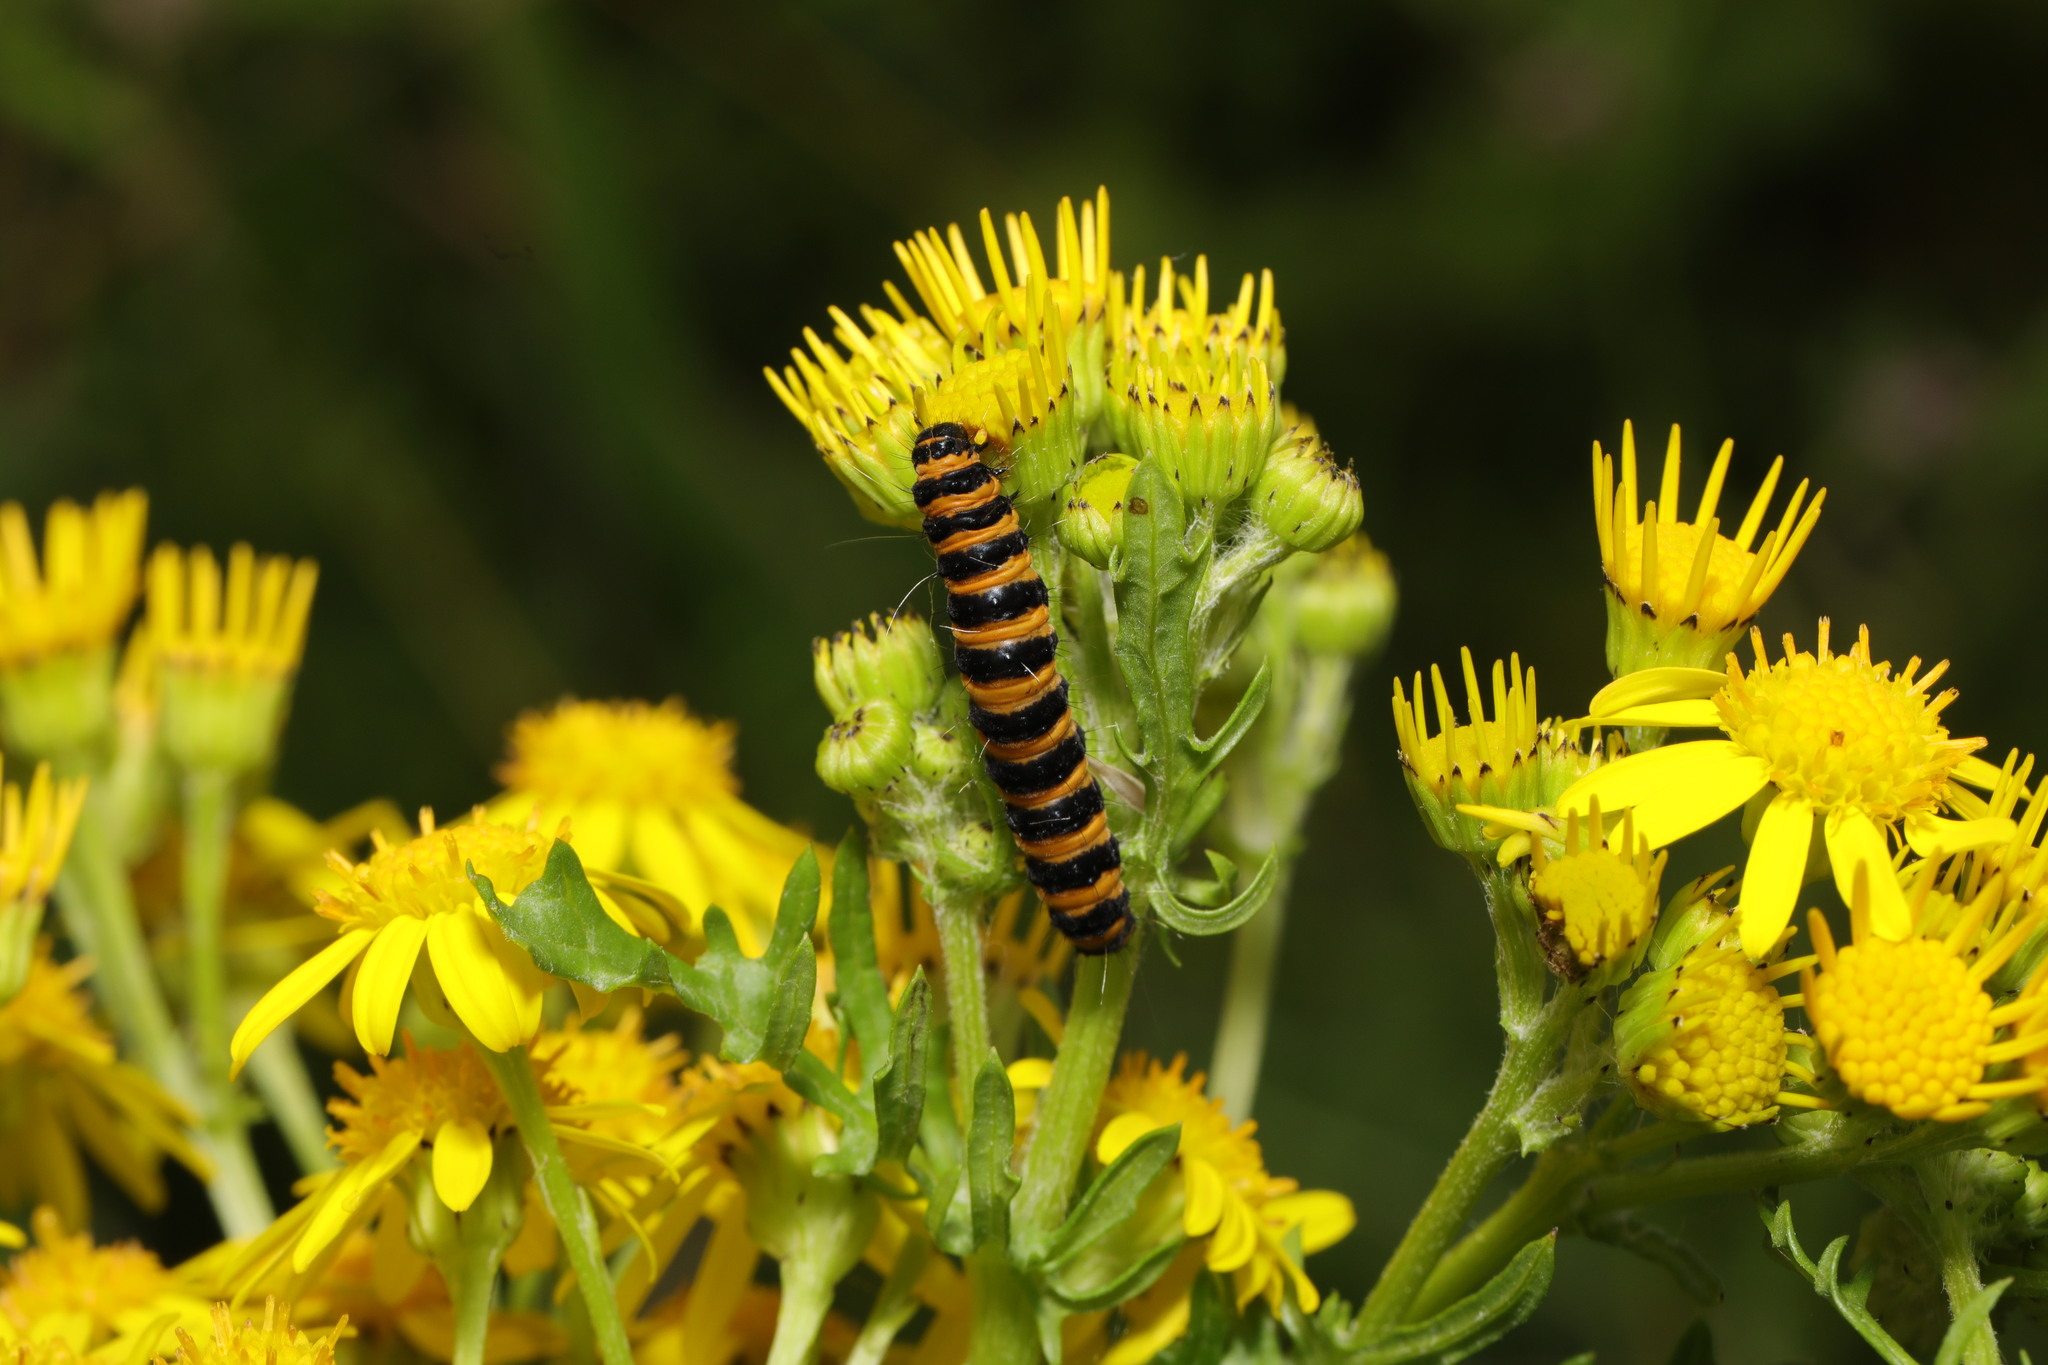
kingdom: Animalia
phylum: Arthropoda
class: Insecta
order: Lepidoptera
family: Erebidae
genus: Tyria
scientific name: Tyria jacobaeae
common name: Cinnabar
